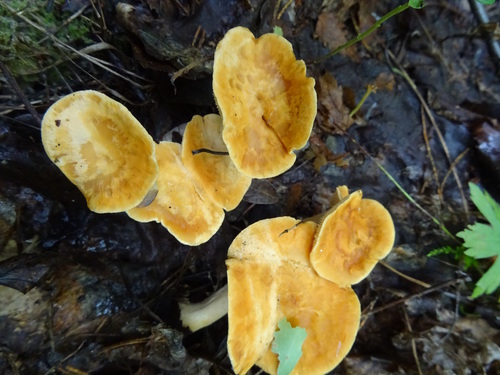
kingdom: Fungi
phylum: Basidiomycota
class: Agaricomycetes
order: Cantharellales
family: Hydnaceae
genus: Hydnum
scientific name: Hydnum rufescens
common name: Terracotta hedgehog
